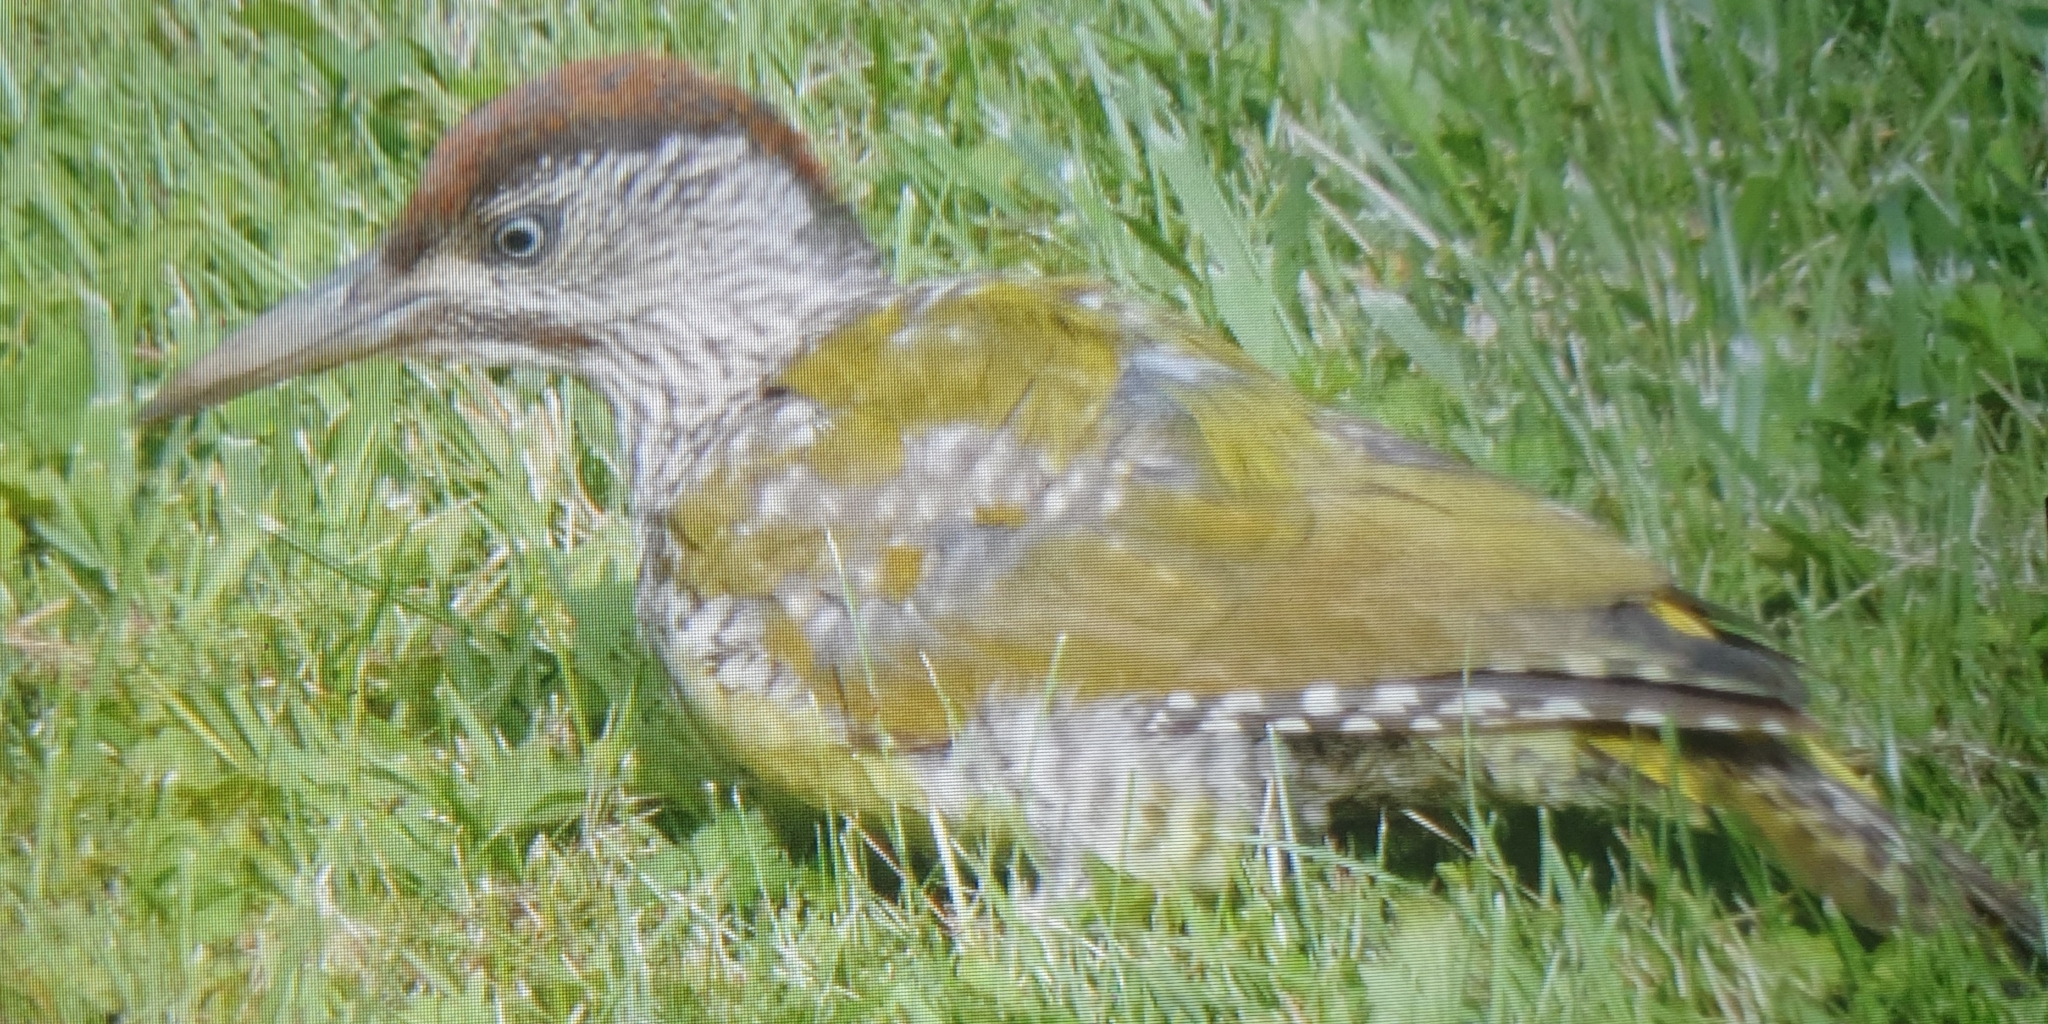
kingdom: Animalia
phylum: Chordata
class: Aves
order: Piciformes
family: Picidae
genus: Picus
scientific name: Picus viridis
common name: European green woodpecker
